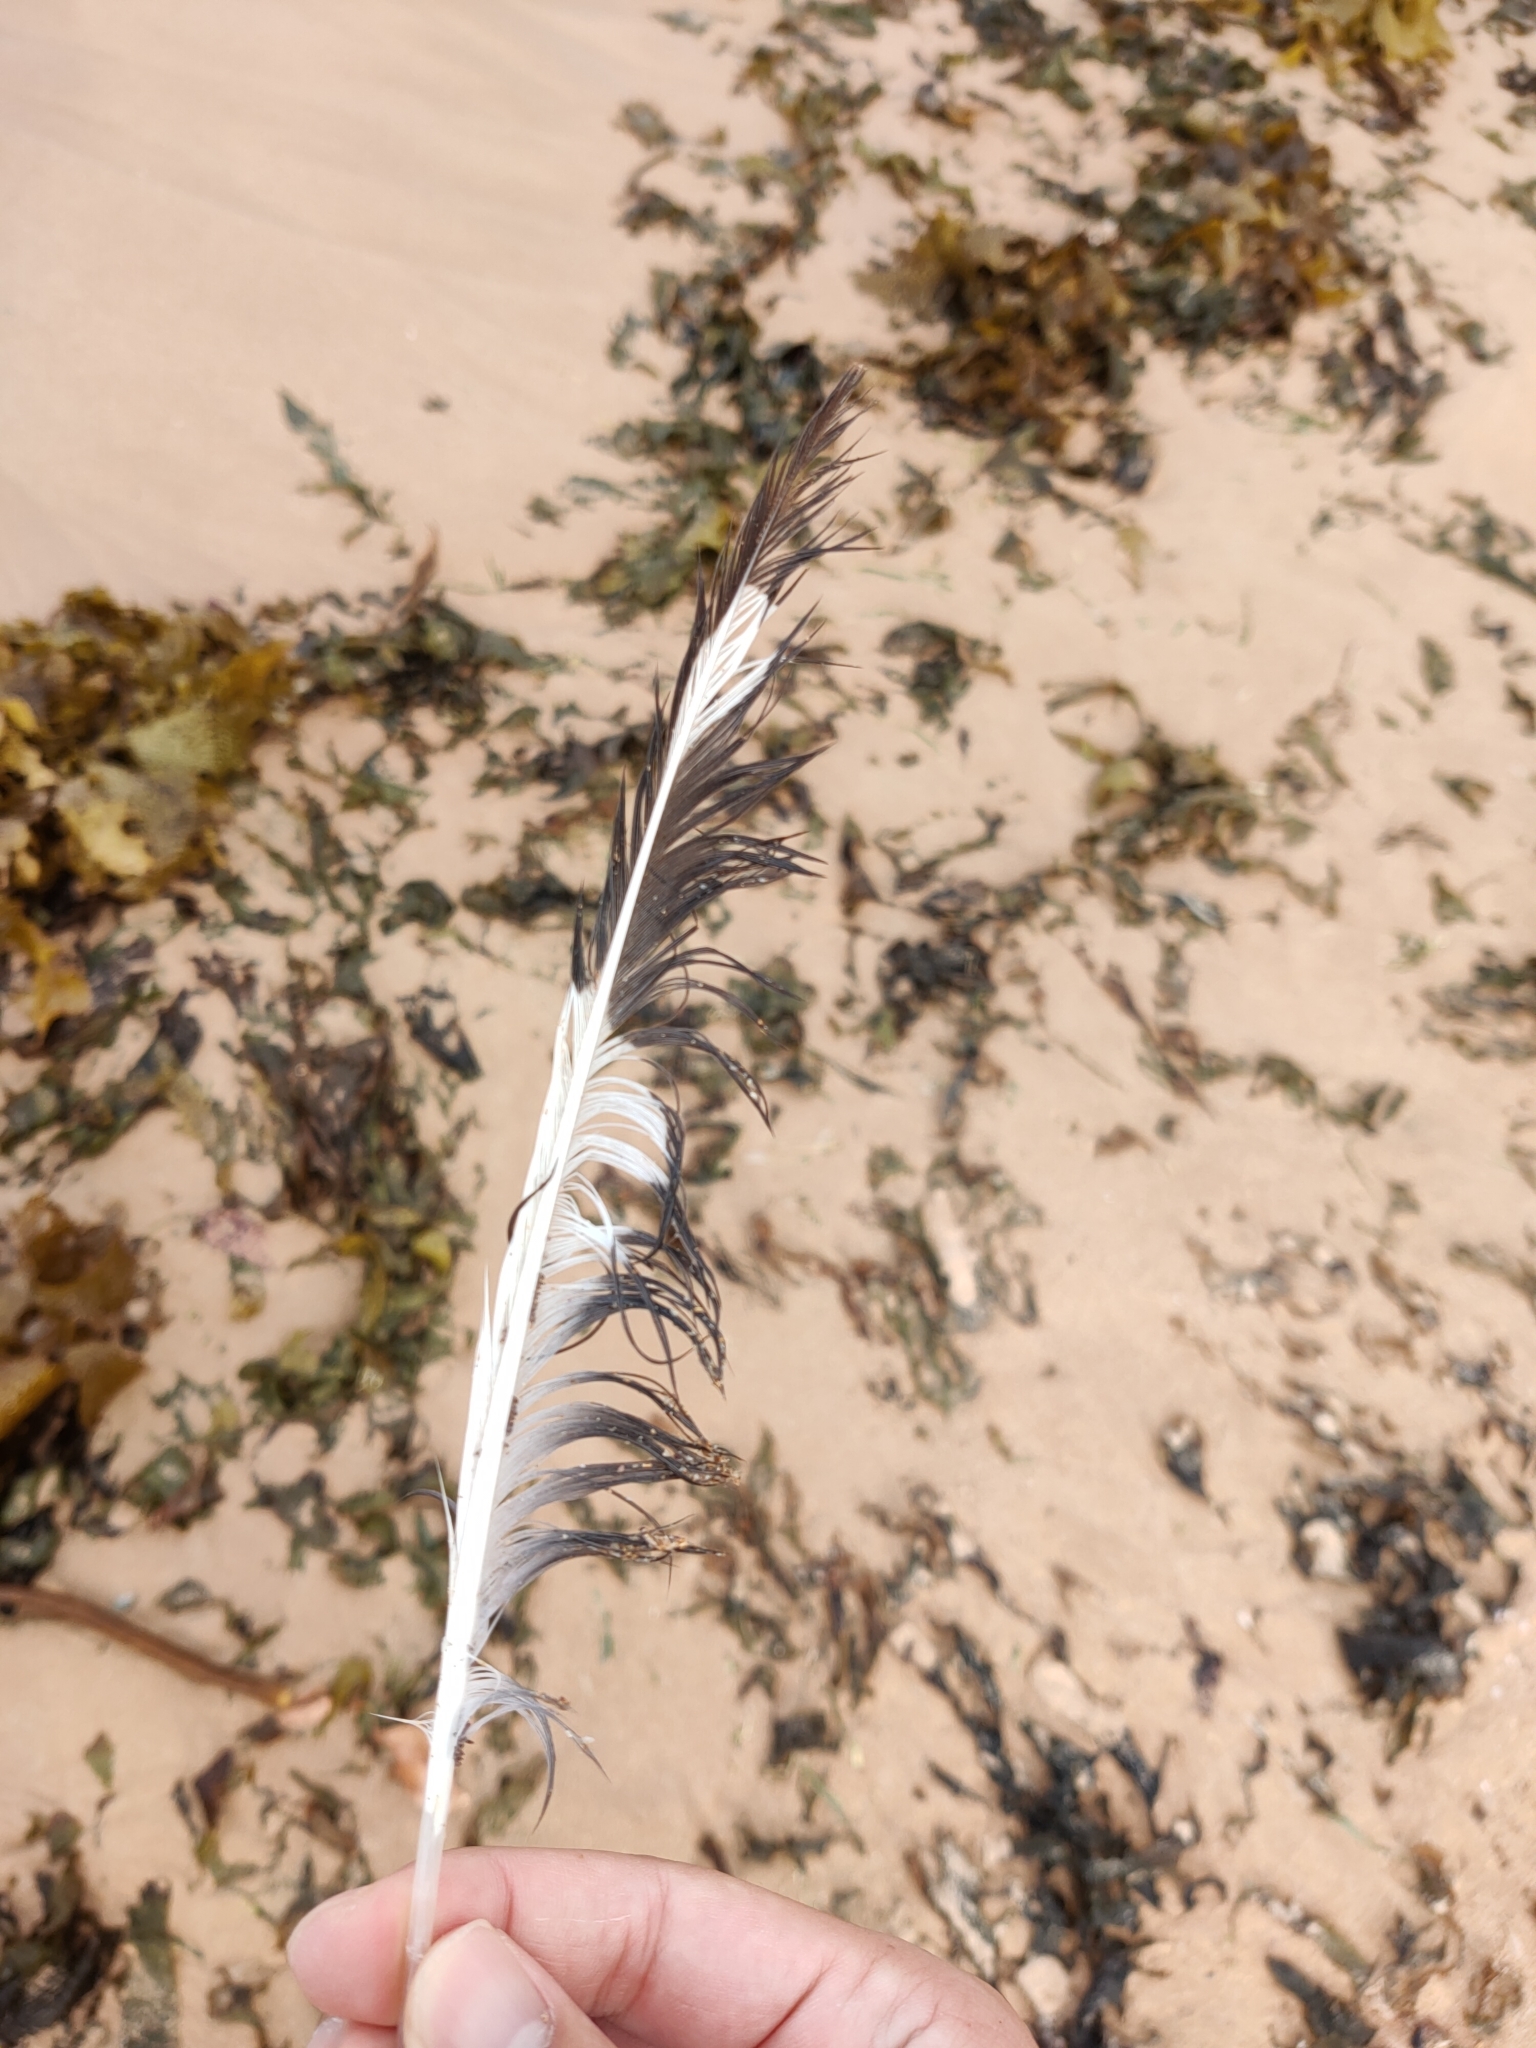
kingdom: Animalia
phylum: Chordata
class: Aves
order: Charadriiformes
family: Laridae
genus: Chroicocephalus
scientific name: Chroicocephalus novaehollandiae
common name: Silver gull
